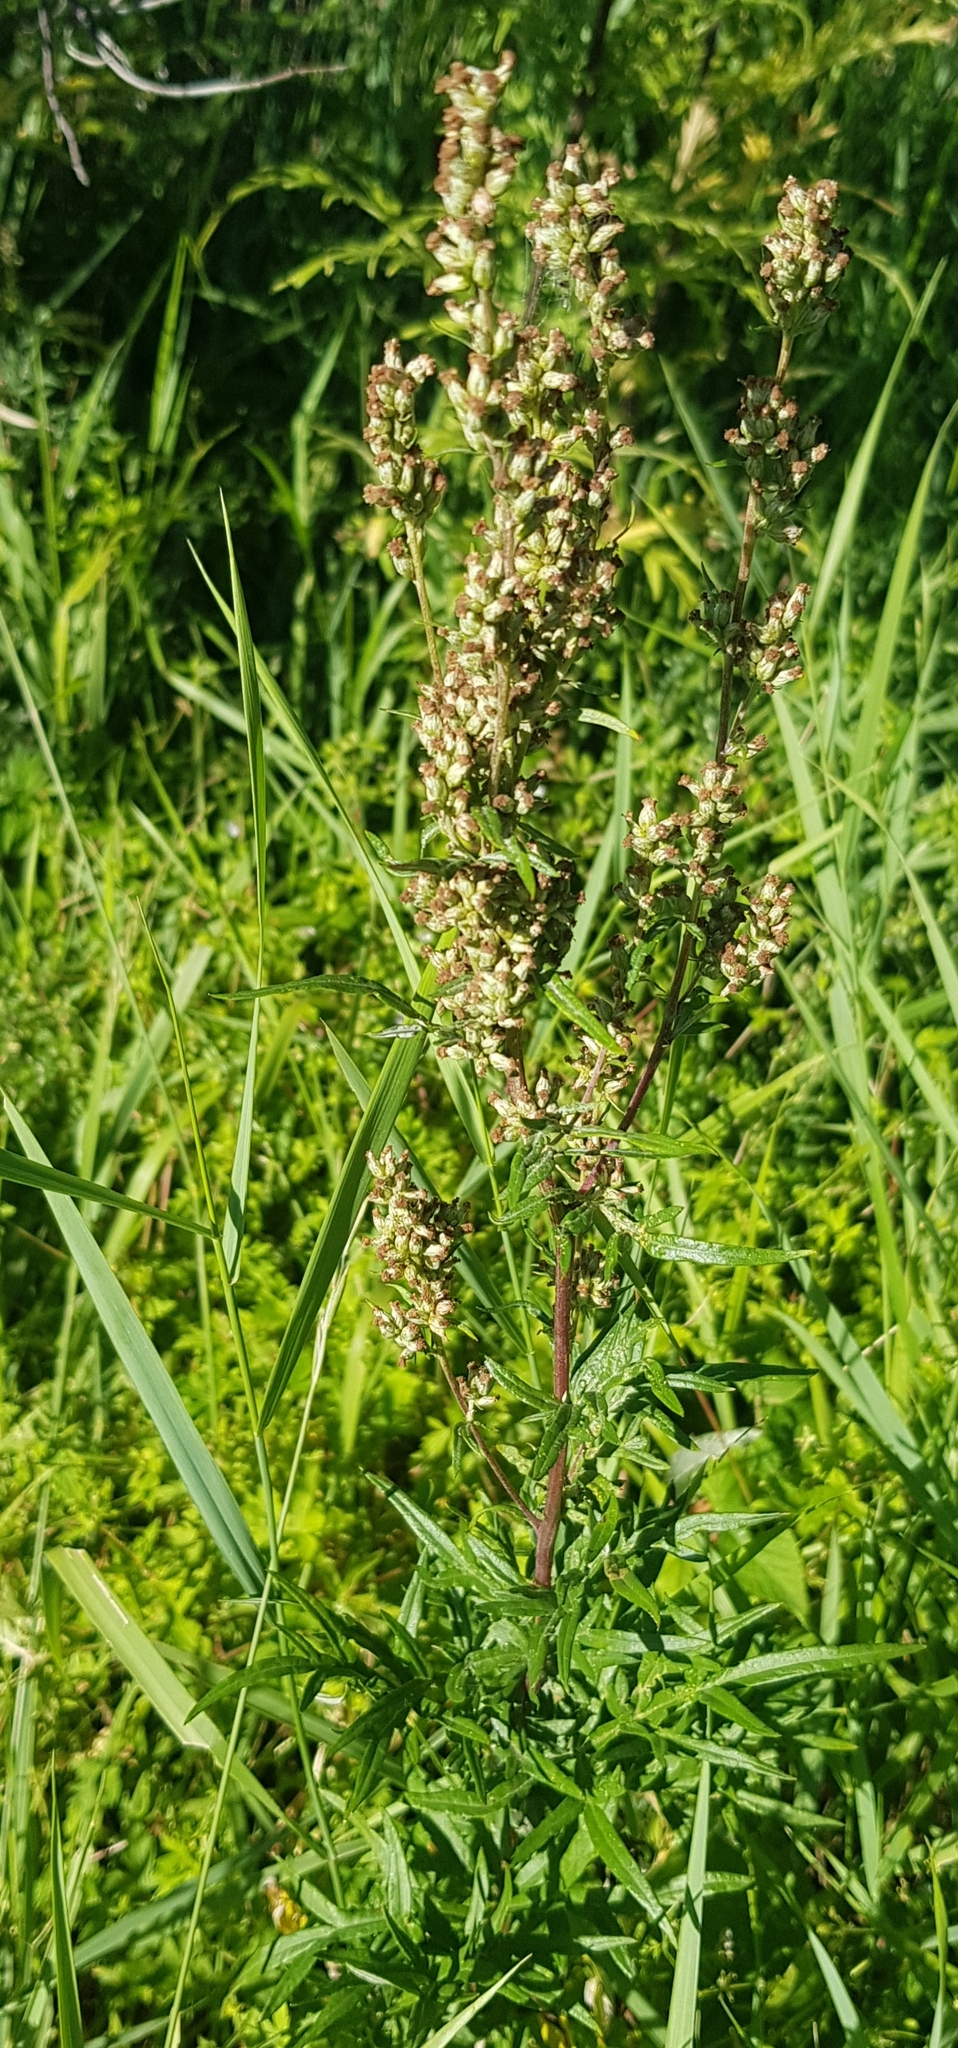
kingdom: Plantae
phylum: Tracheophyta
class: Magnoliopsida
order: Asterales
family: Asteraceae
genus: Artemisia
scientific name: Artemisia vulgaris
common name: Mugwort
